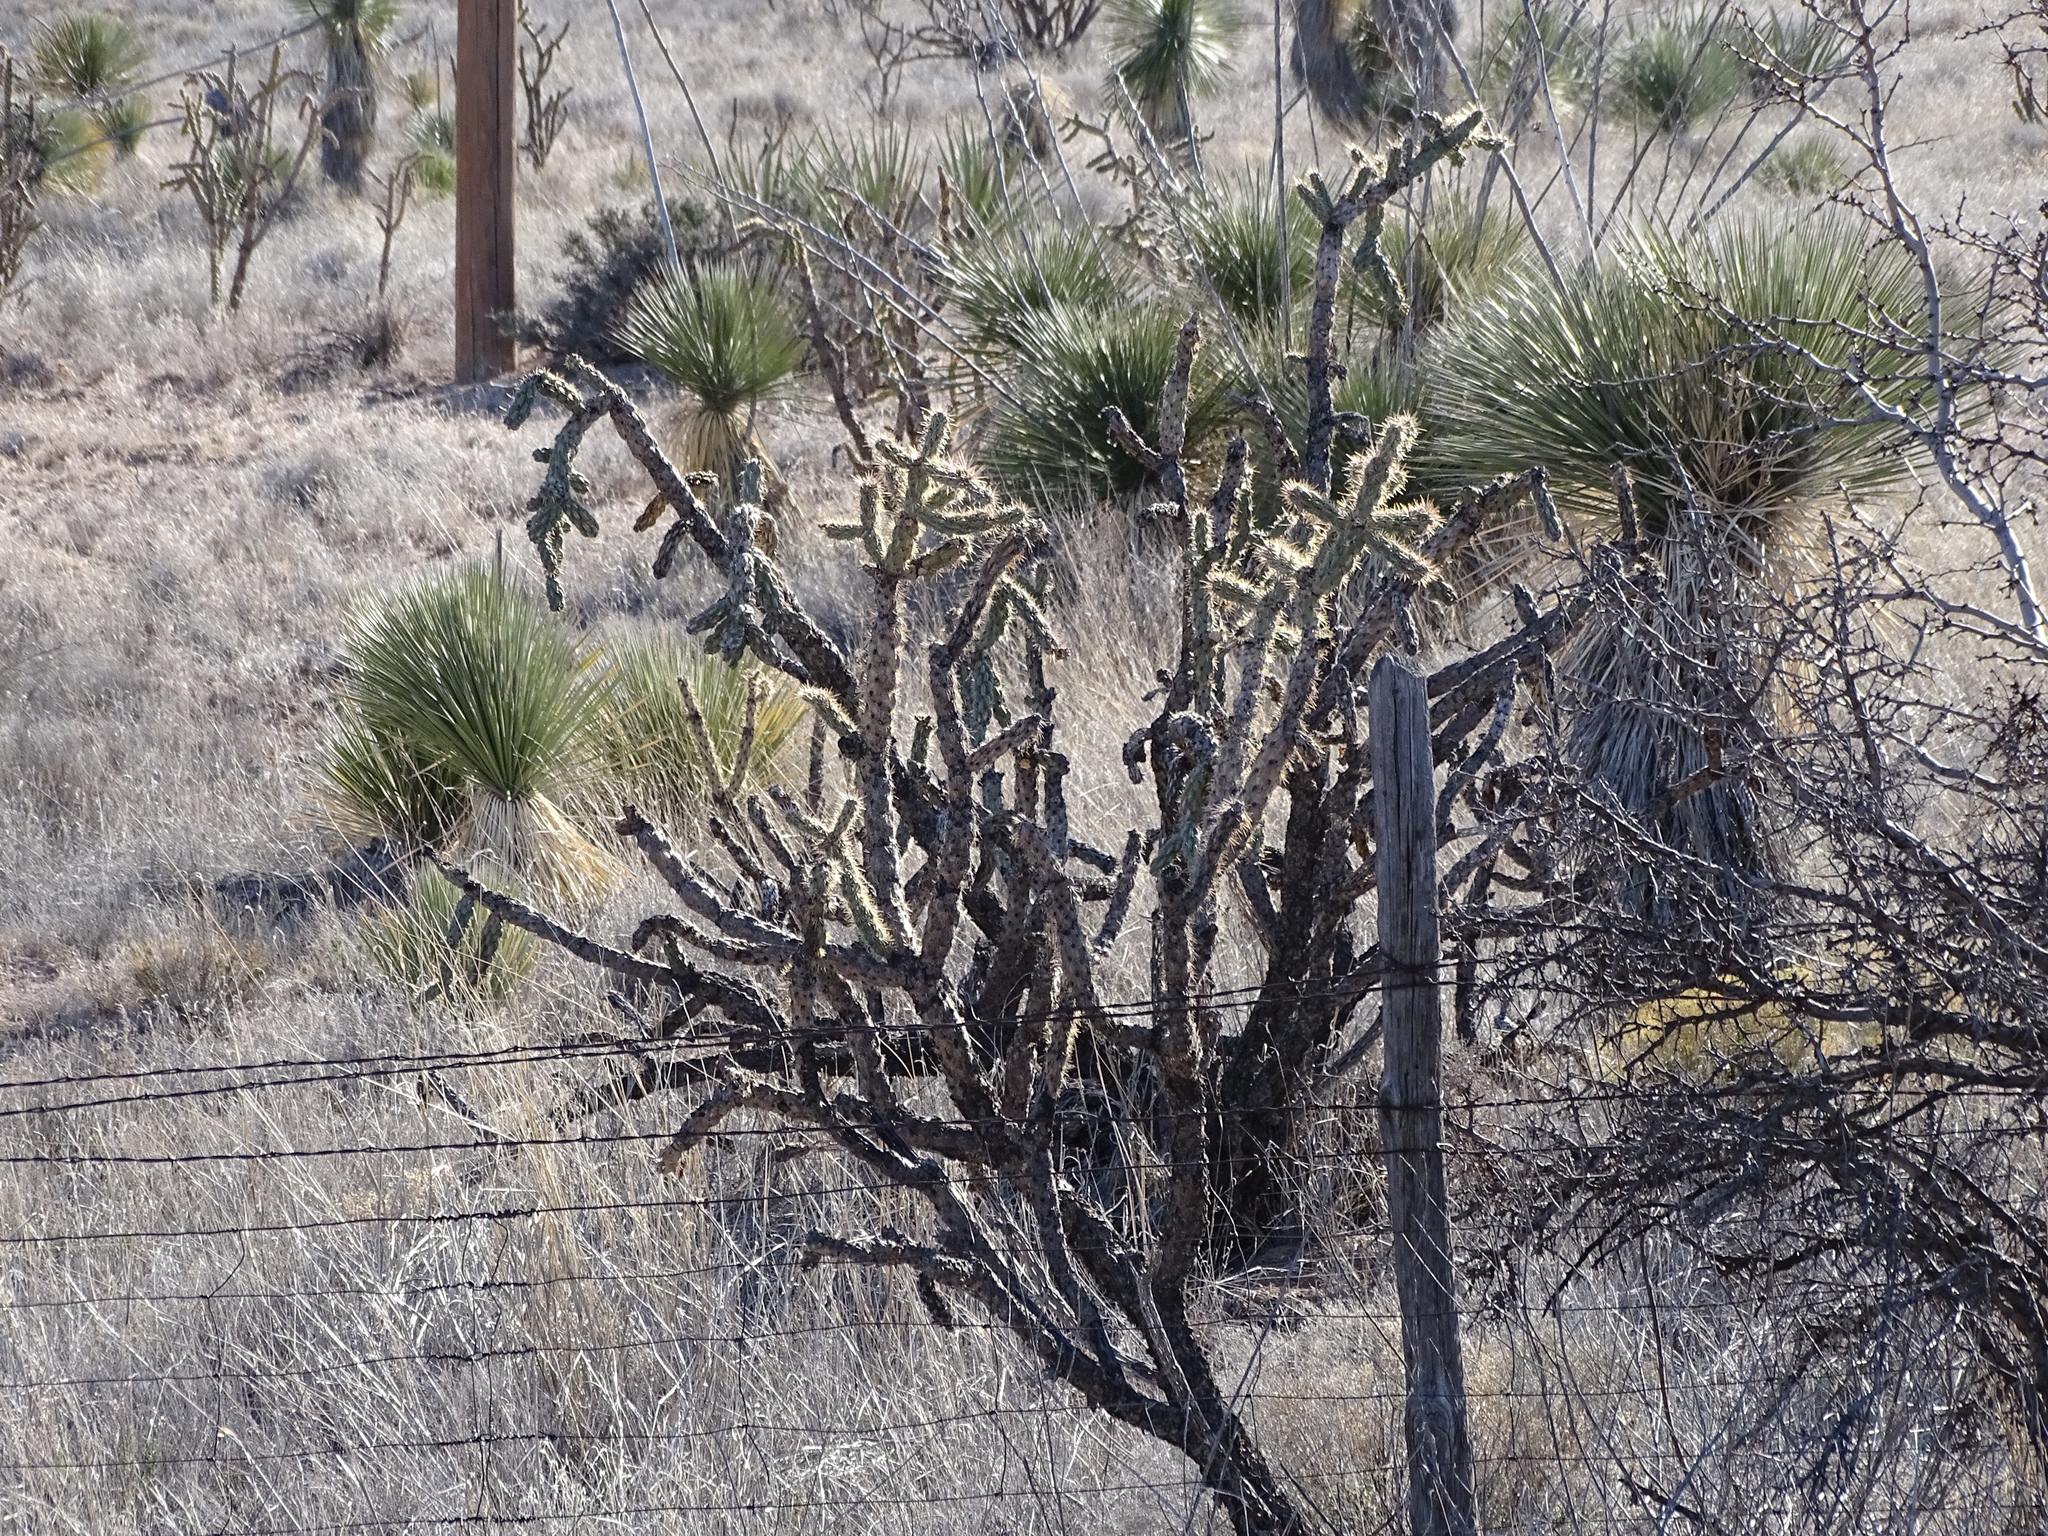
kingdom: Plantae
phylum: Tracheophyta
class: Magnoliopsida
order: Caryophyllales
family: Cactaceae
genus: Cylindropuntia
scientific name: Cylindropuntia imbricata
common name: Candelabrum cactus
